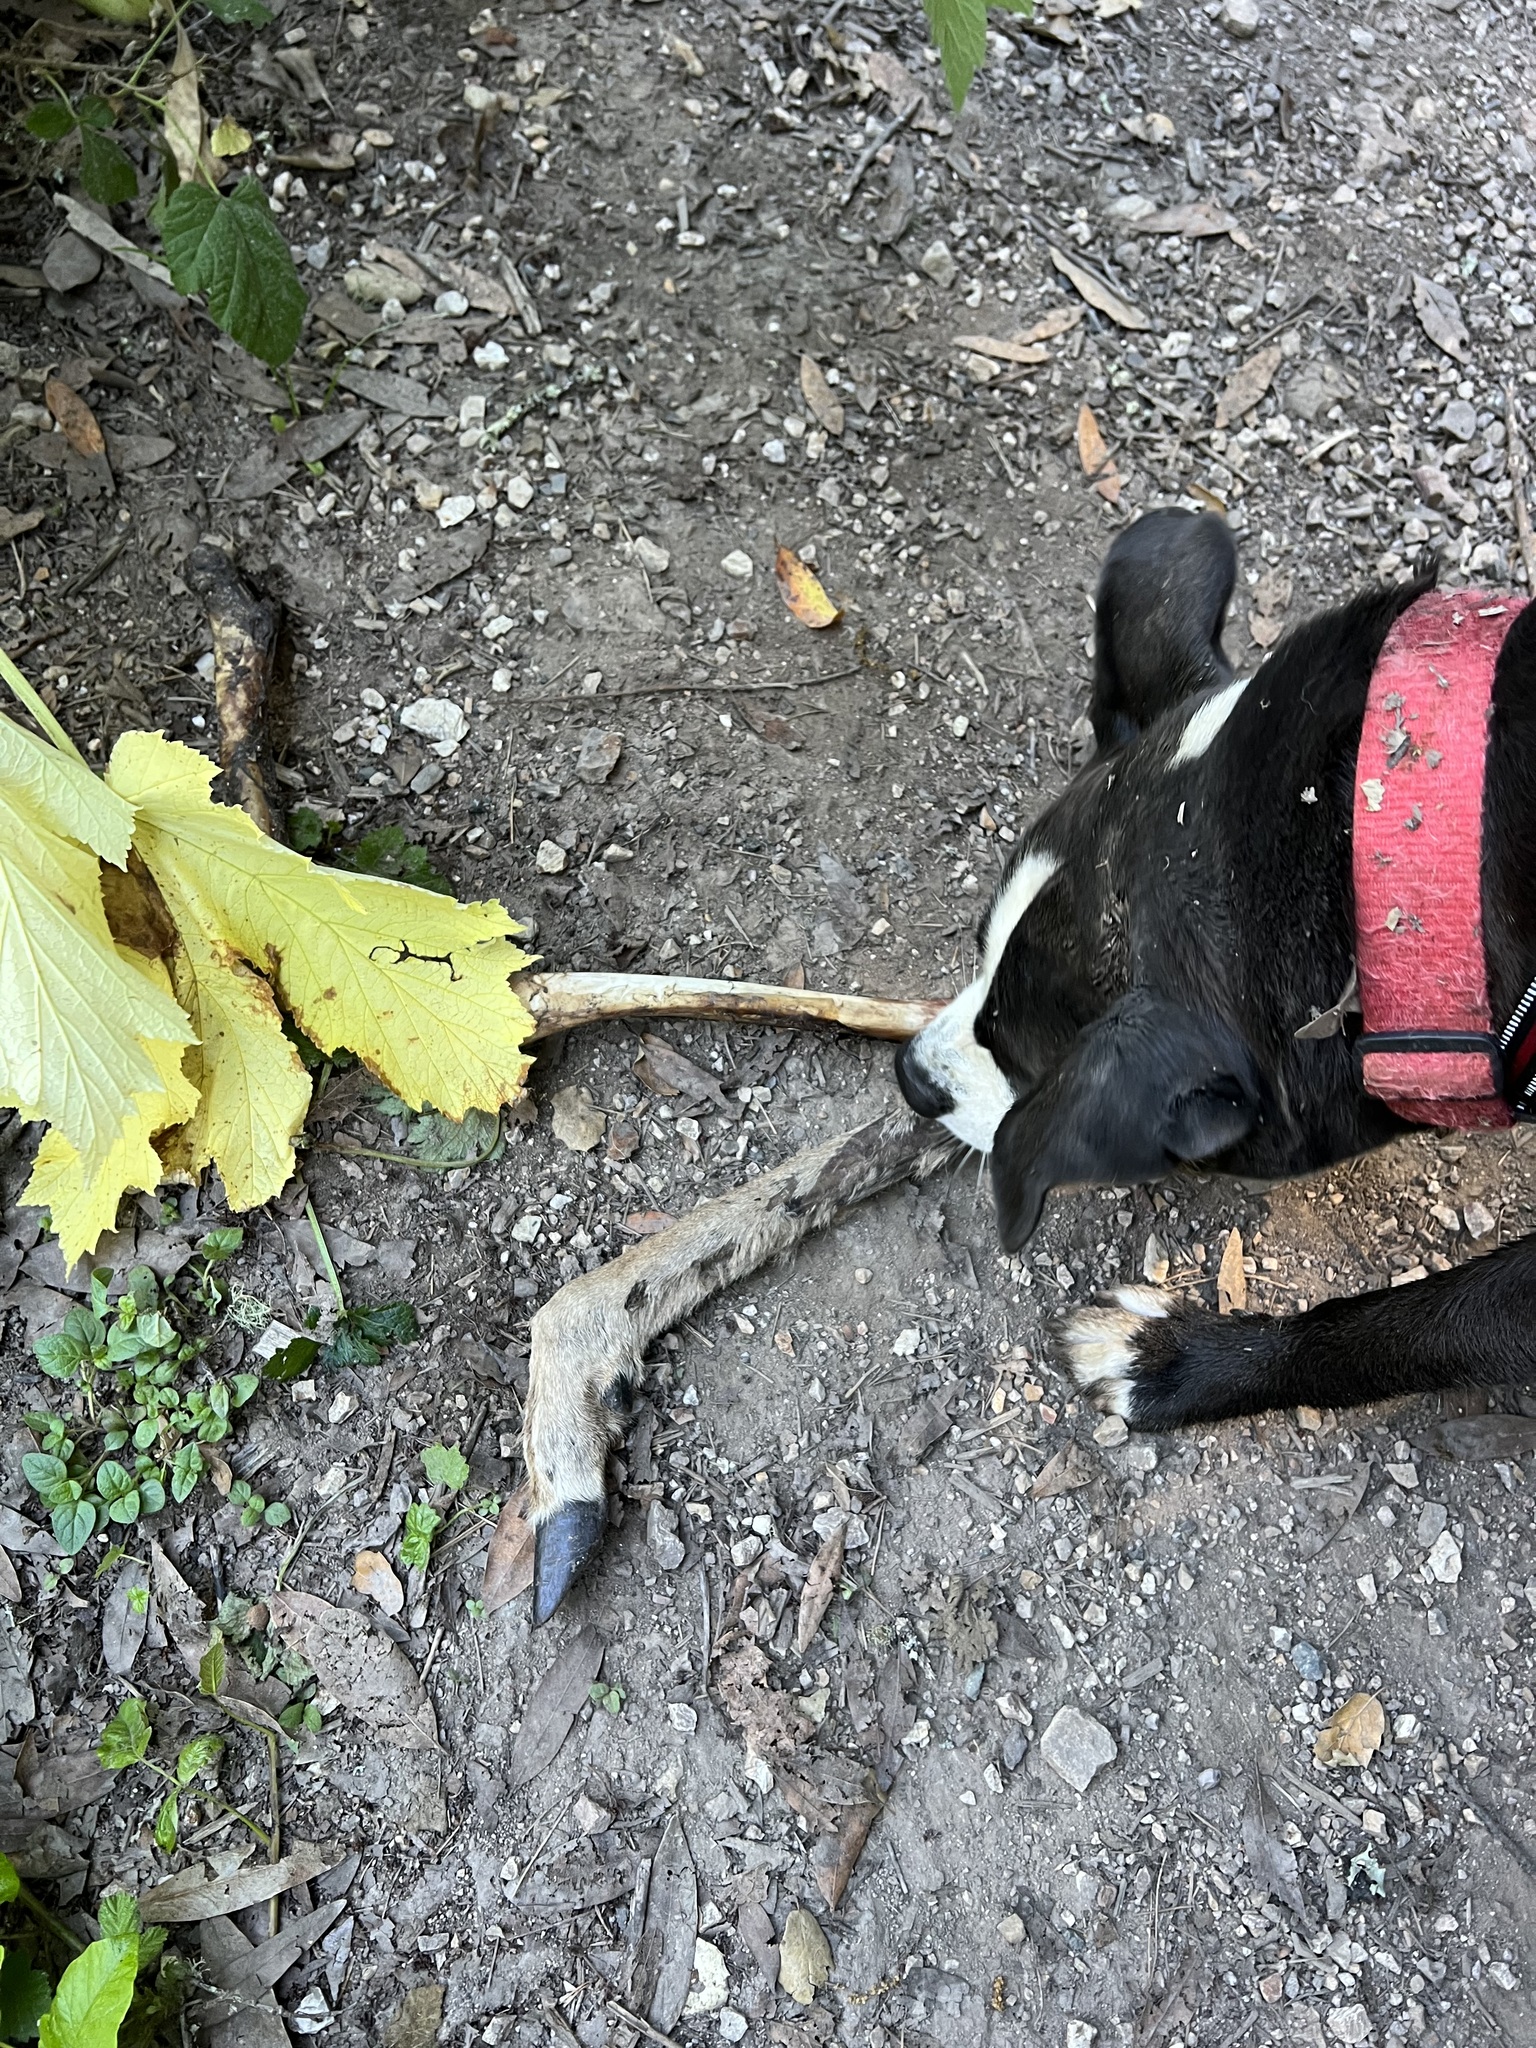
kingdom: Animalia
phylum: Chordata
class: Mammalia
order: Artiodactyla
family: Cervidae
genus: Odocoileus
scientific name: Odocoileus hemionus
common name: Mule deer
